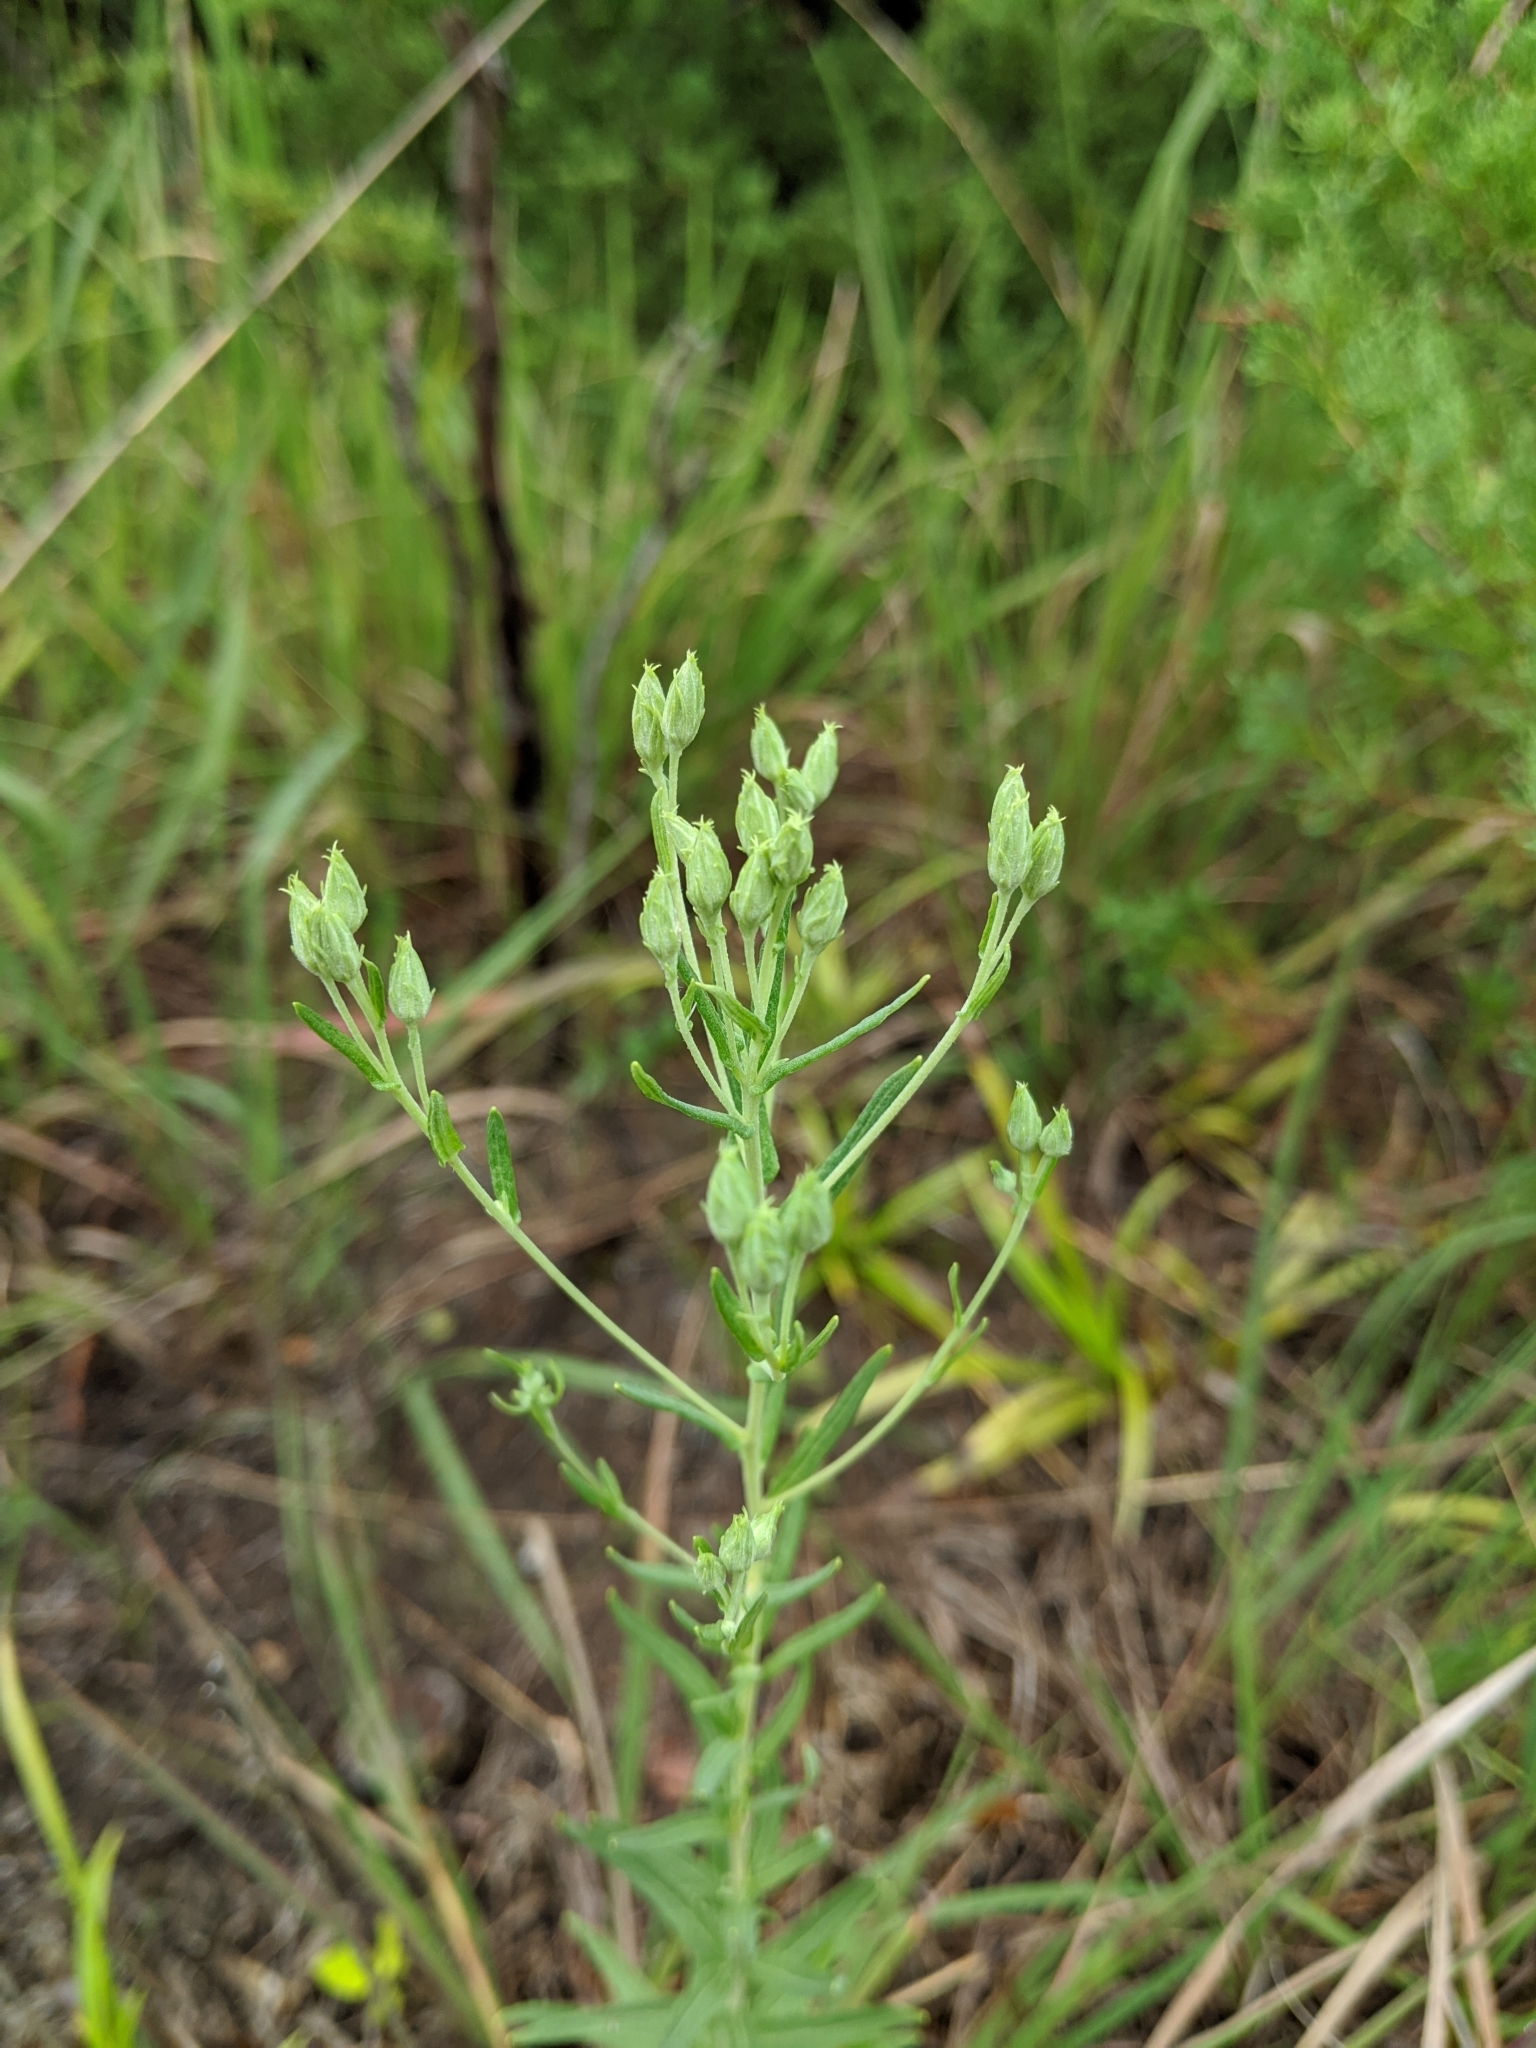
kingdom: Plantae
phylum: Tracheophyta
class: Magnoliopsida
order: Asterales
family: Asteraceae
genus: Brickellia
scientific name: Brickellia eupatorioides
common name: False boneset
